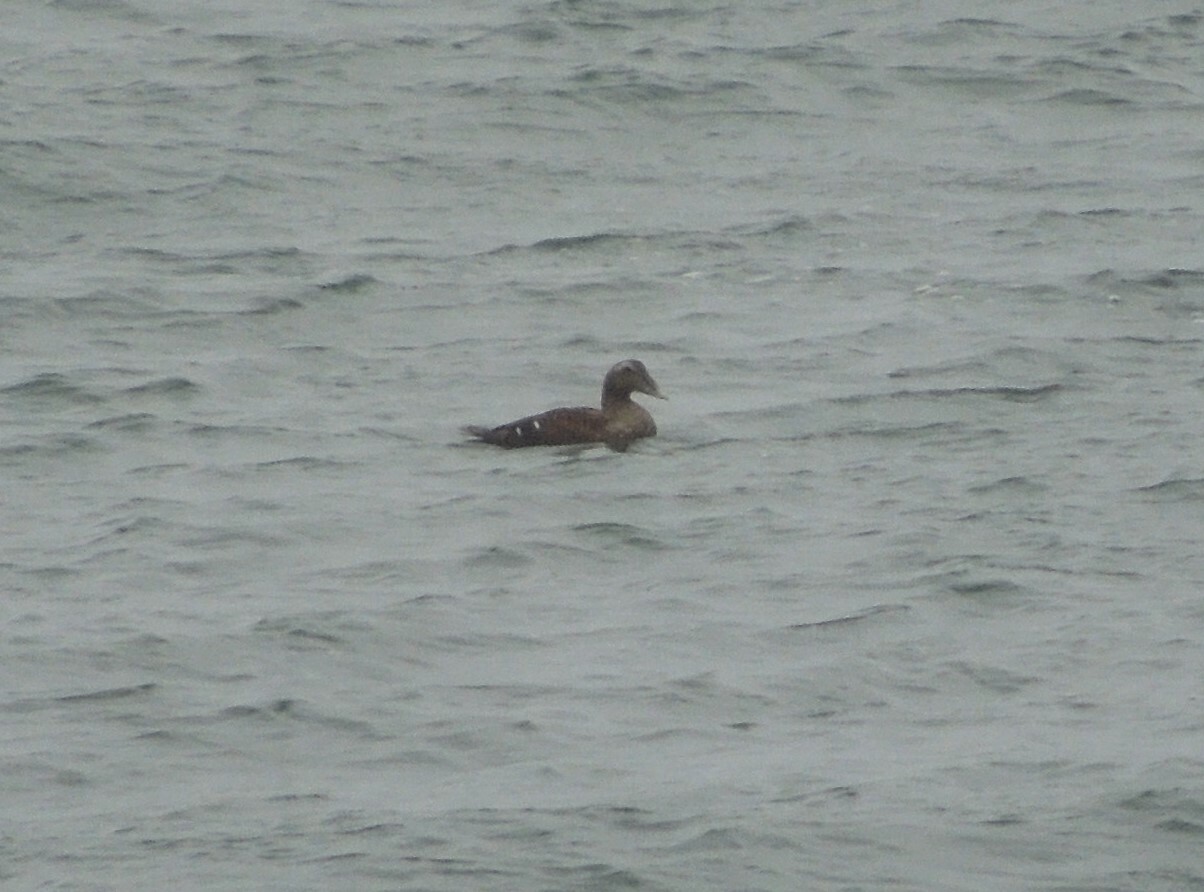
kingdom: Animalia
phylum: Chordata
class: Aves
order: Anseriformes
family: Anatidae
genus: Somateria
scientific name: Somateria mollissima
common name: Common eider
